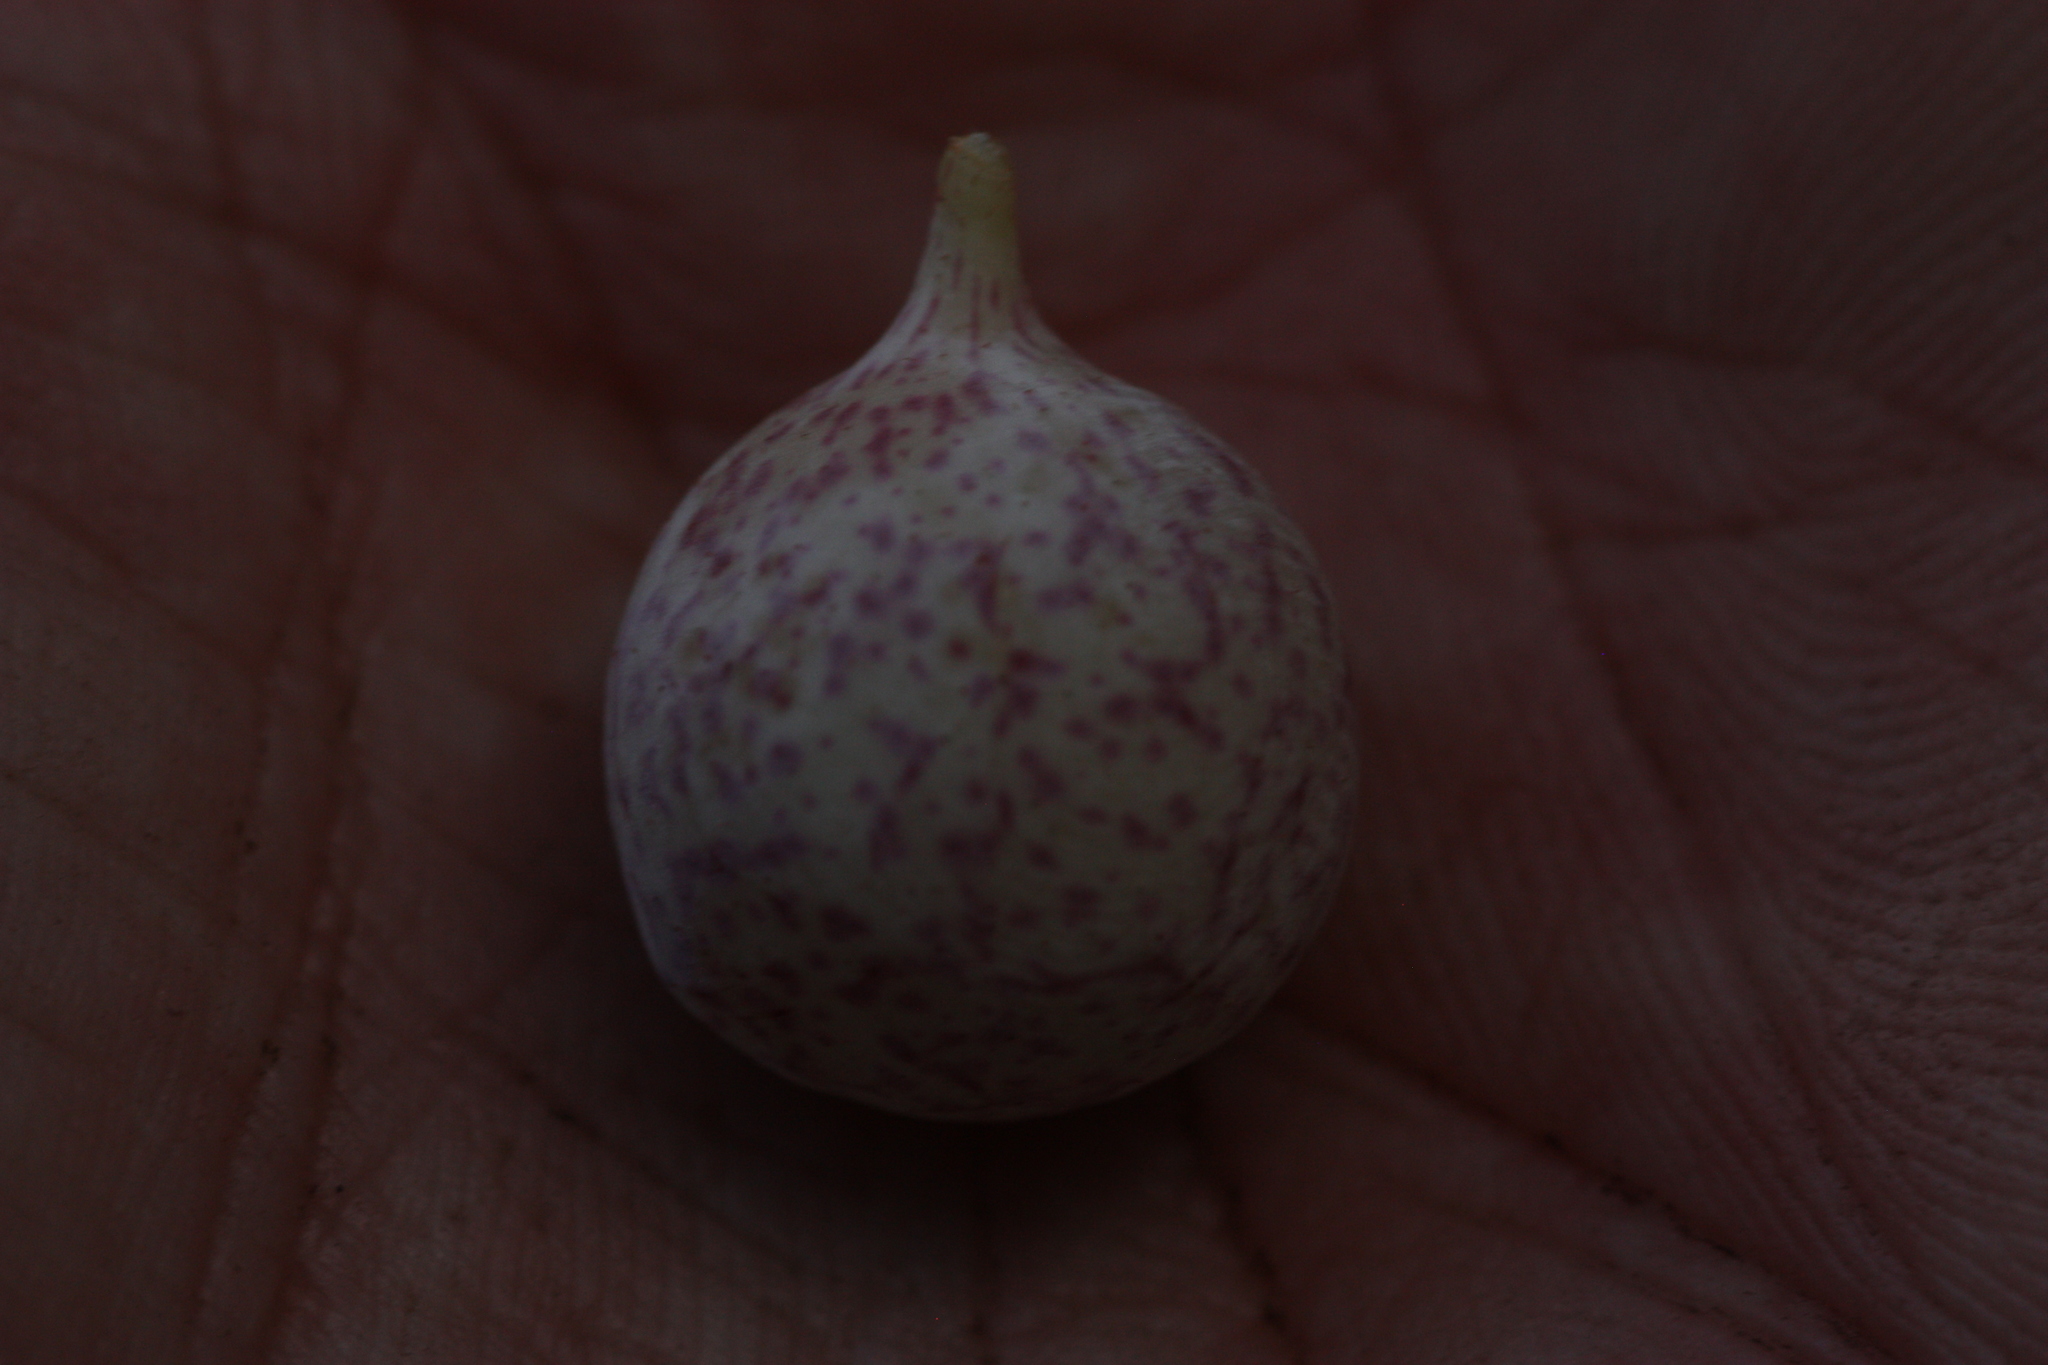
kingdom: Animalia
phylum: Arthropoda
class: Insecta
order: Hymenoptera
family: Cynipidae
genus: Atrusca
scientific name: Atrusca
